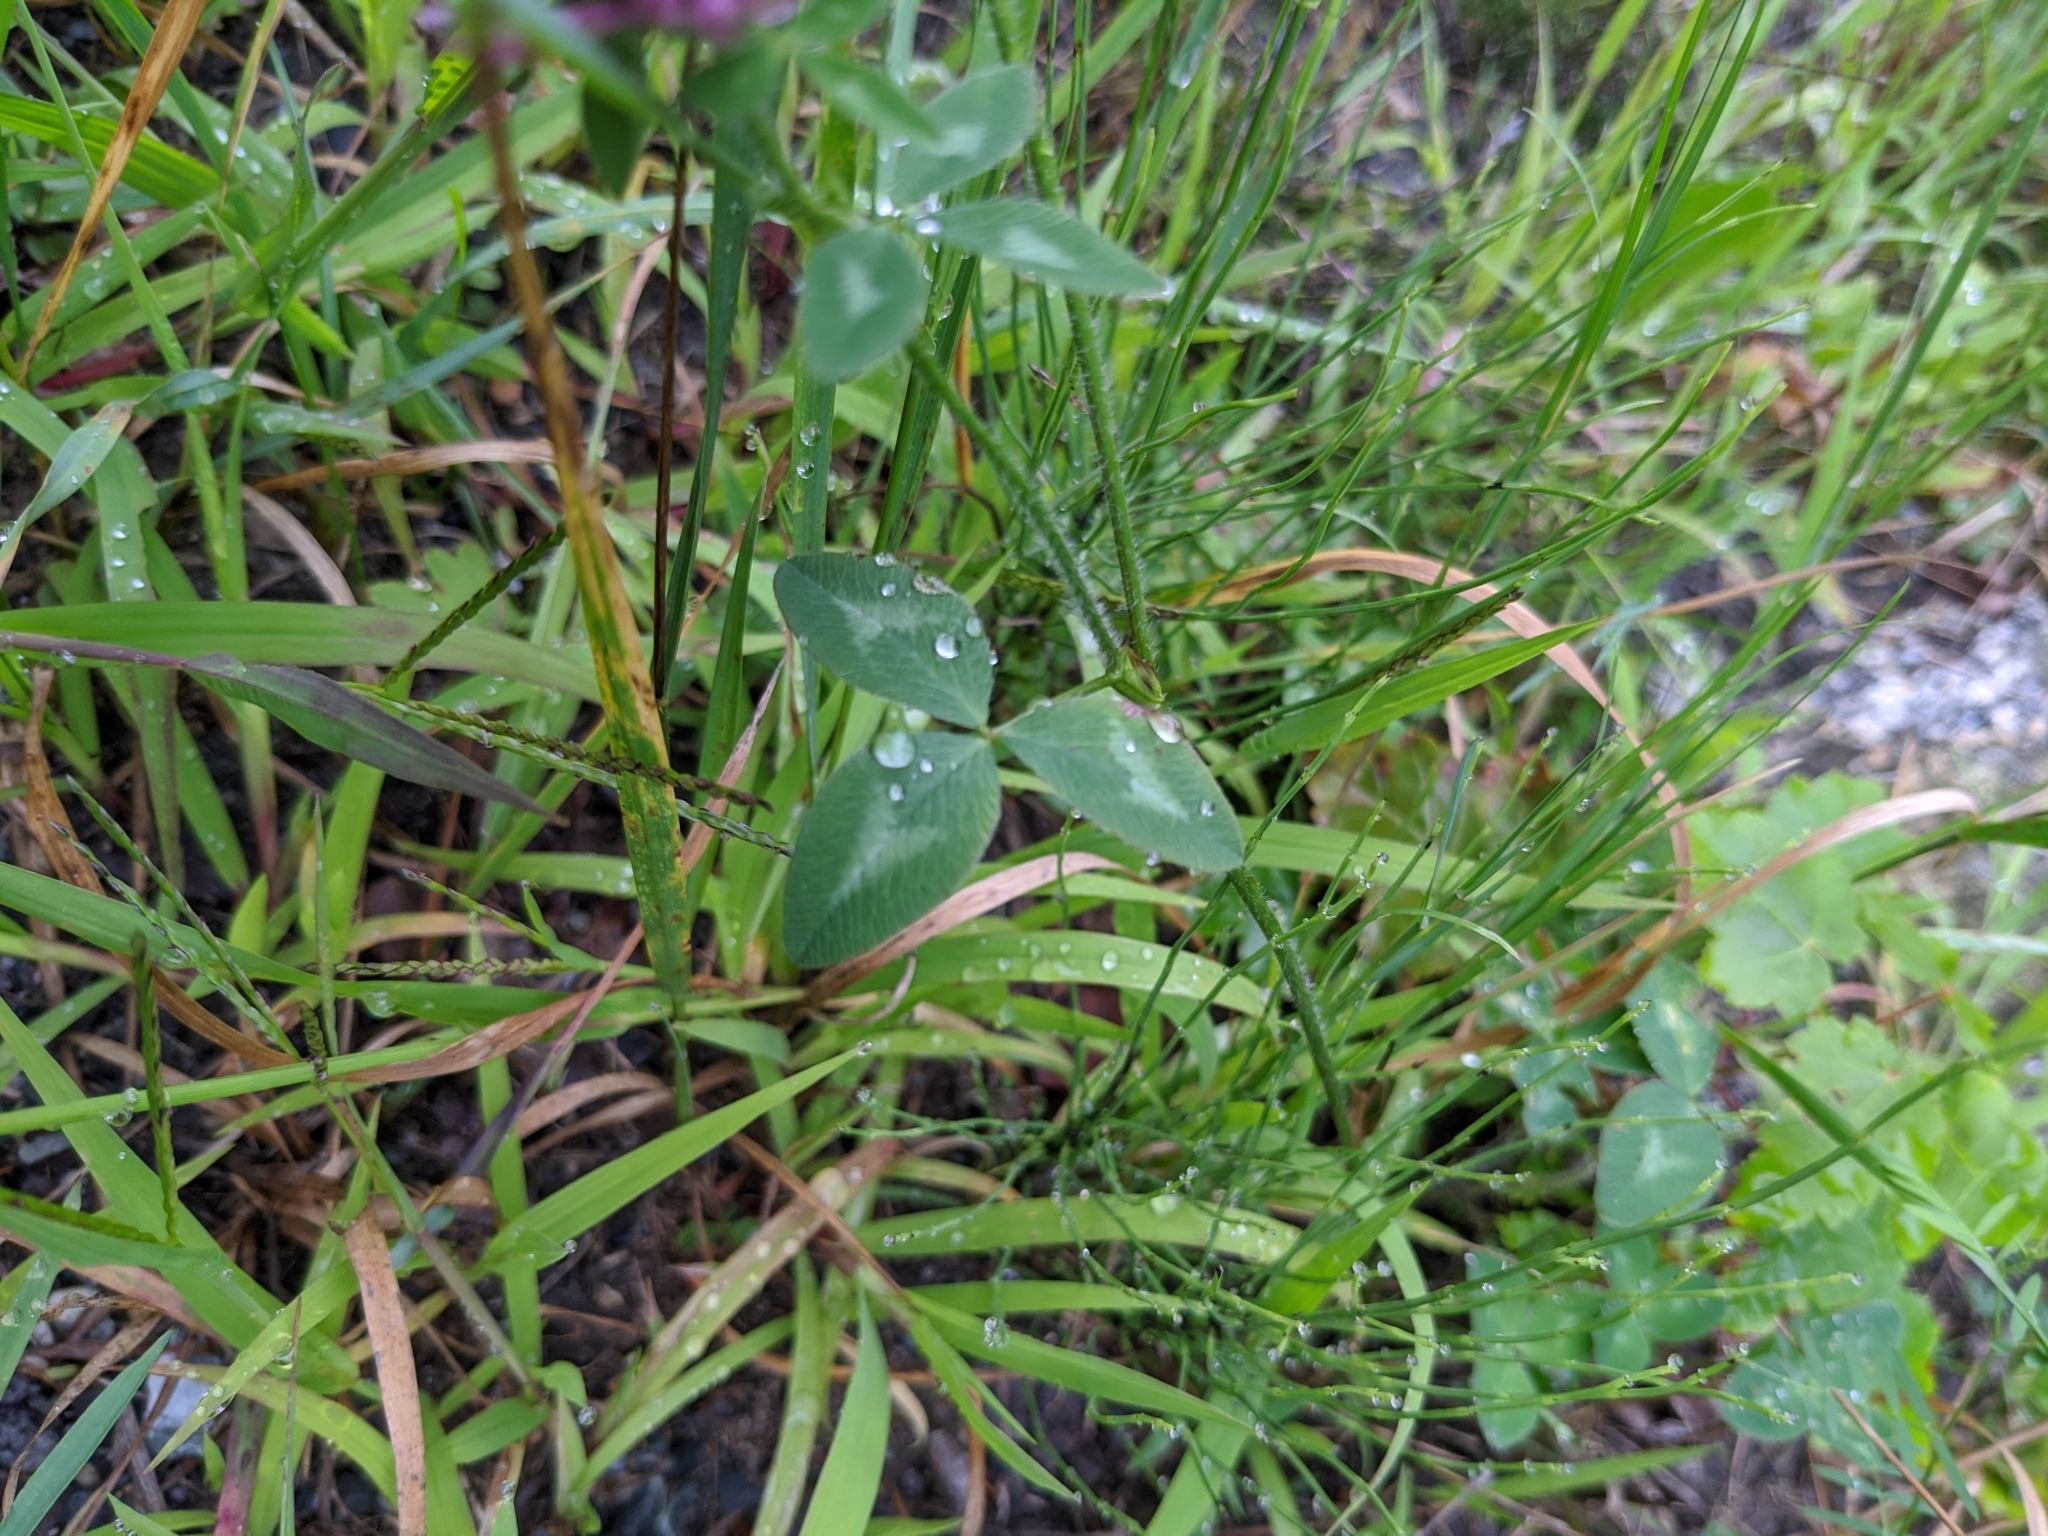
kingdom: Plantae
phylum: Tracheophyta
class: Magnoliopsida
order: Fabales
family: Fabaceae
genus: Trifolium
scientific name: Trifolium pratense
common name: Red clover
